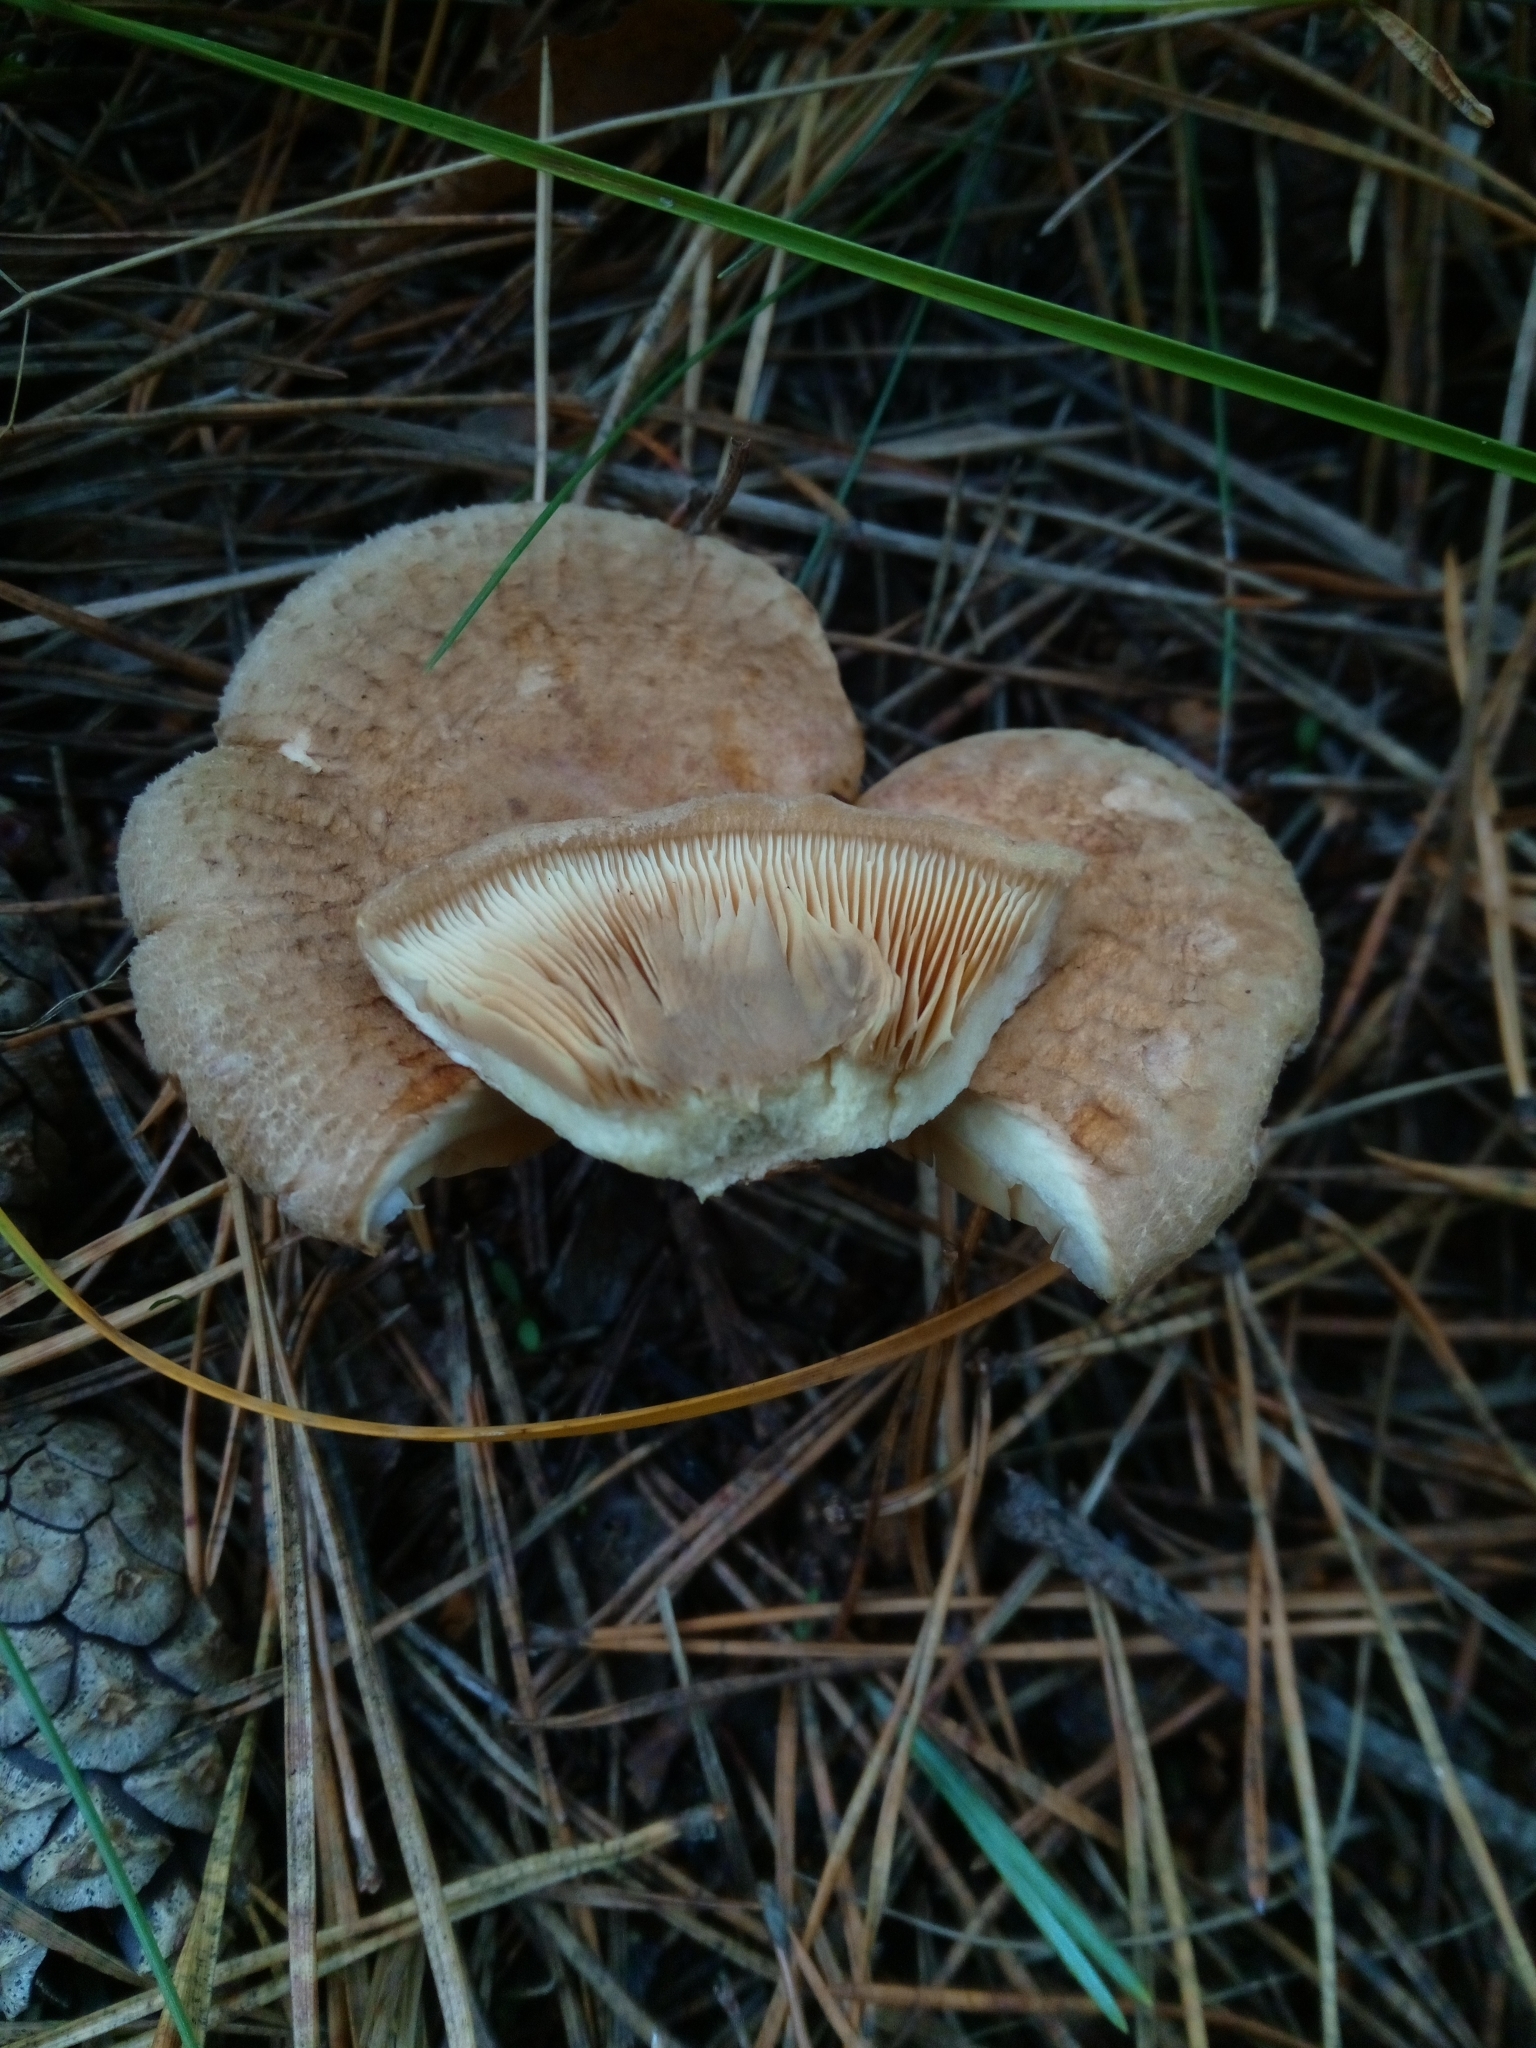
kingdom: Fungi
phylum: Basidiomycota
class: Agaricomycetes
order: Boletales
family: Paxillaceae
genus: Paxillus
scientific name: Paxillus involutus
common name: Brown roll rim
